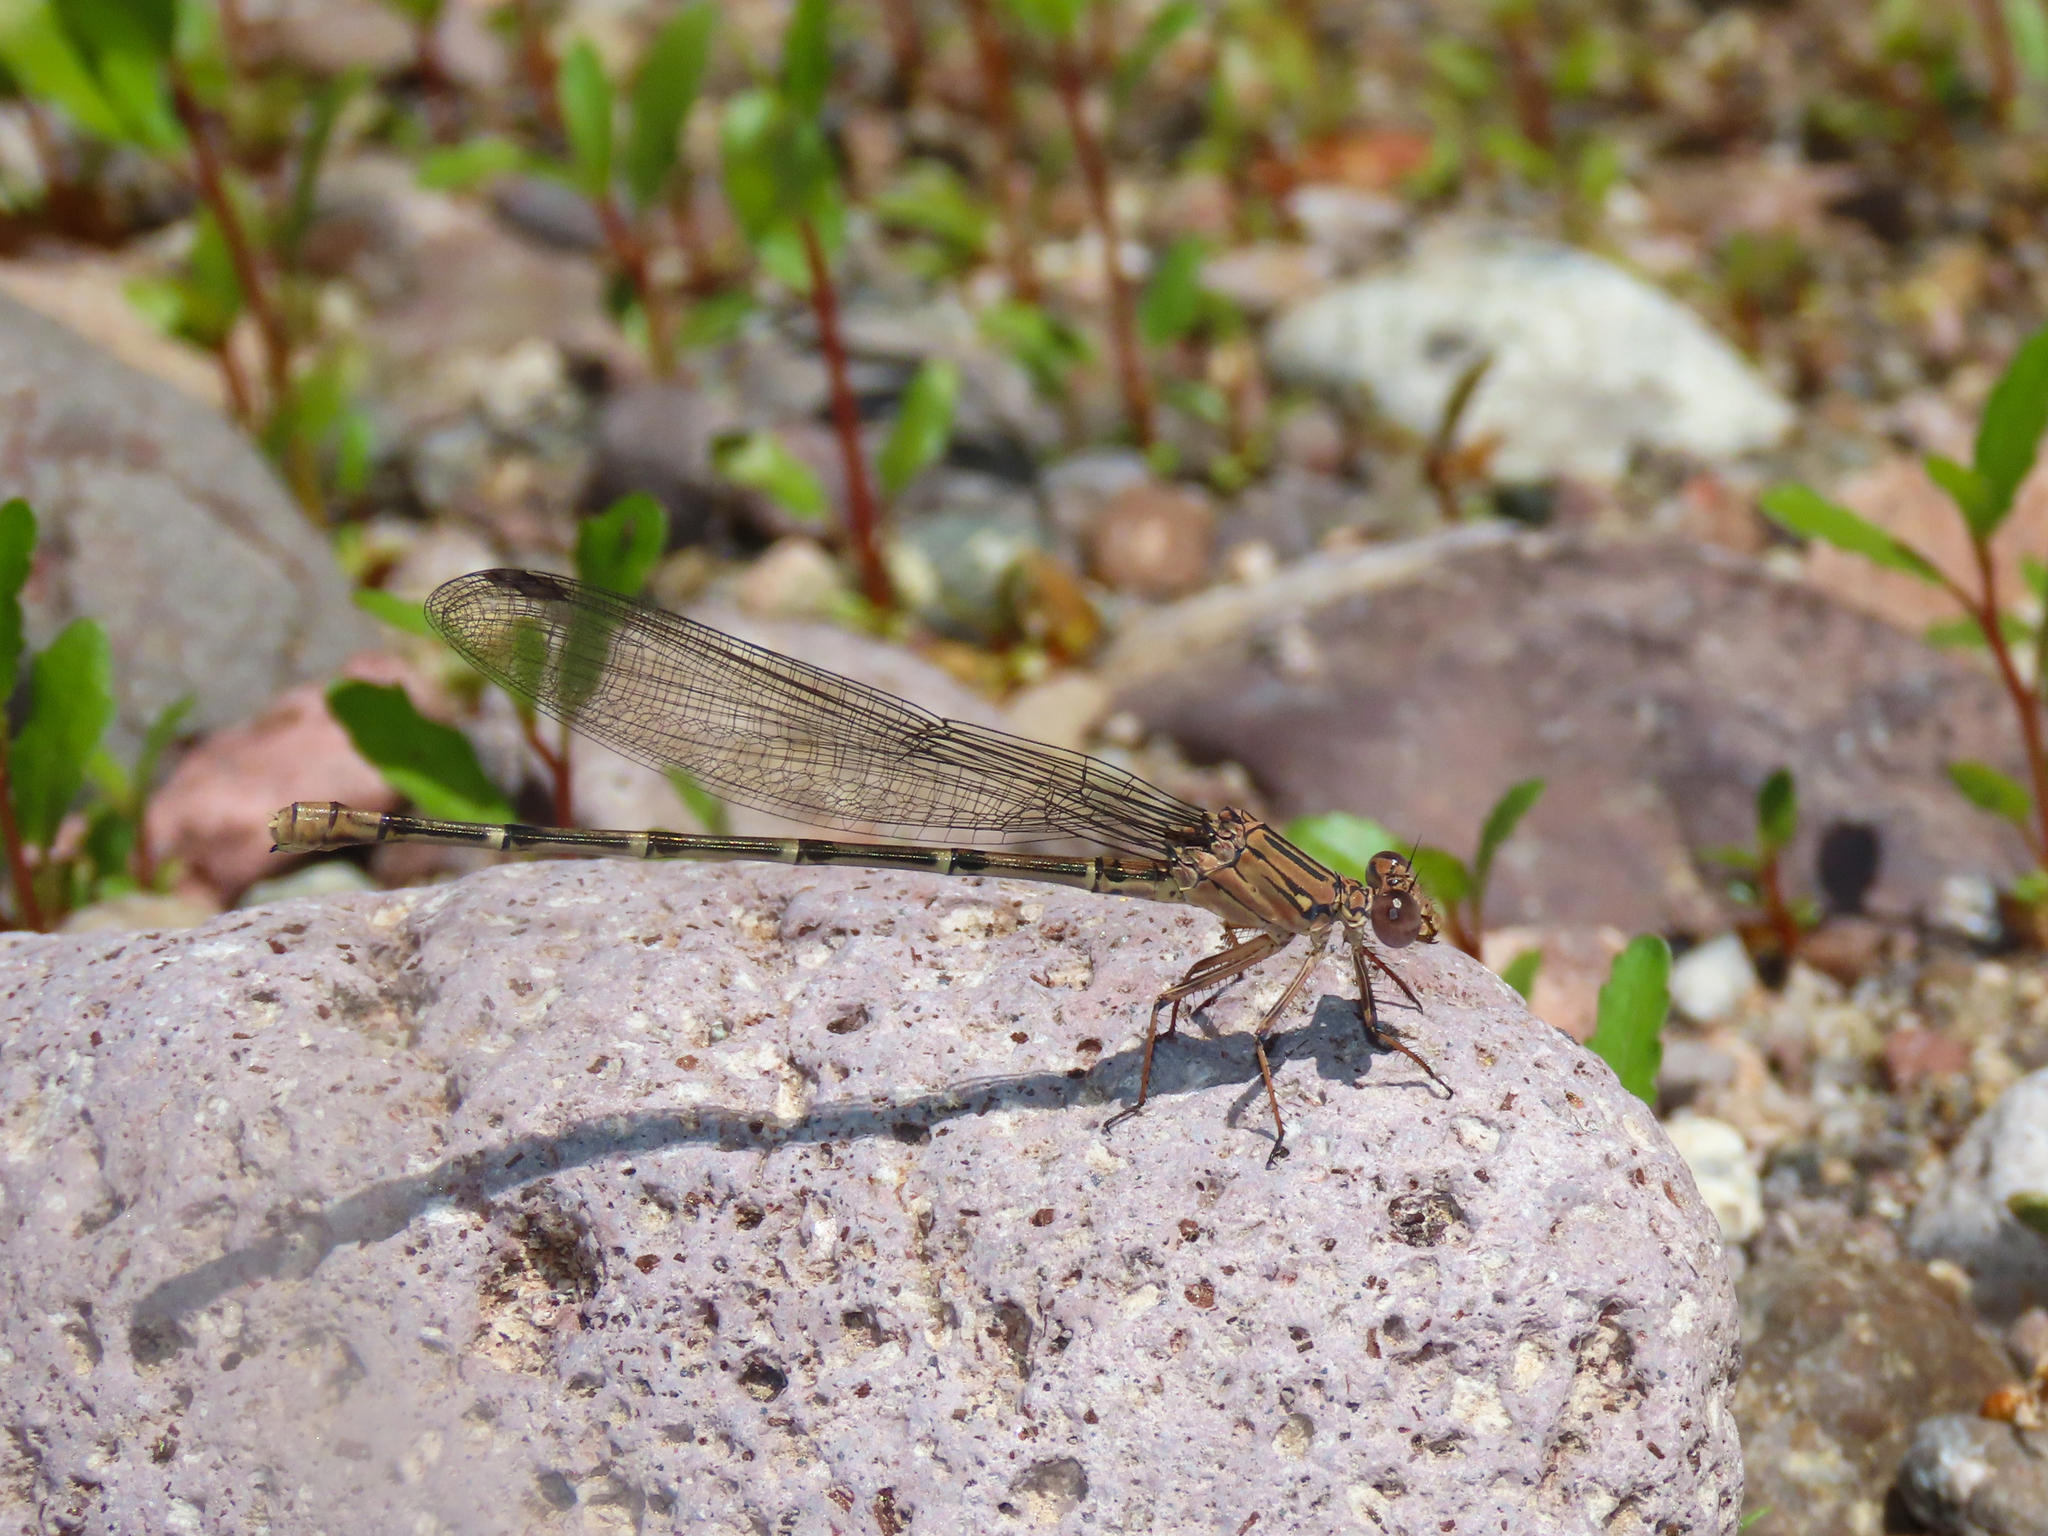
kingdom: Animalia
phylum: Arthropoda
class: Insecta
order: Odonata
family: Coenagrionidae
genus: Argia
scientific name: Argia lugens
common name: Sooty dancer
